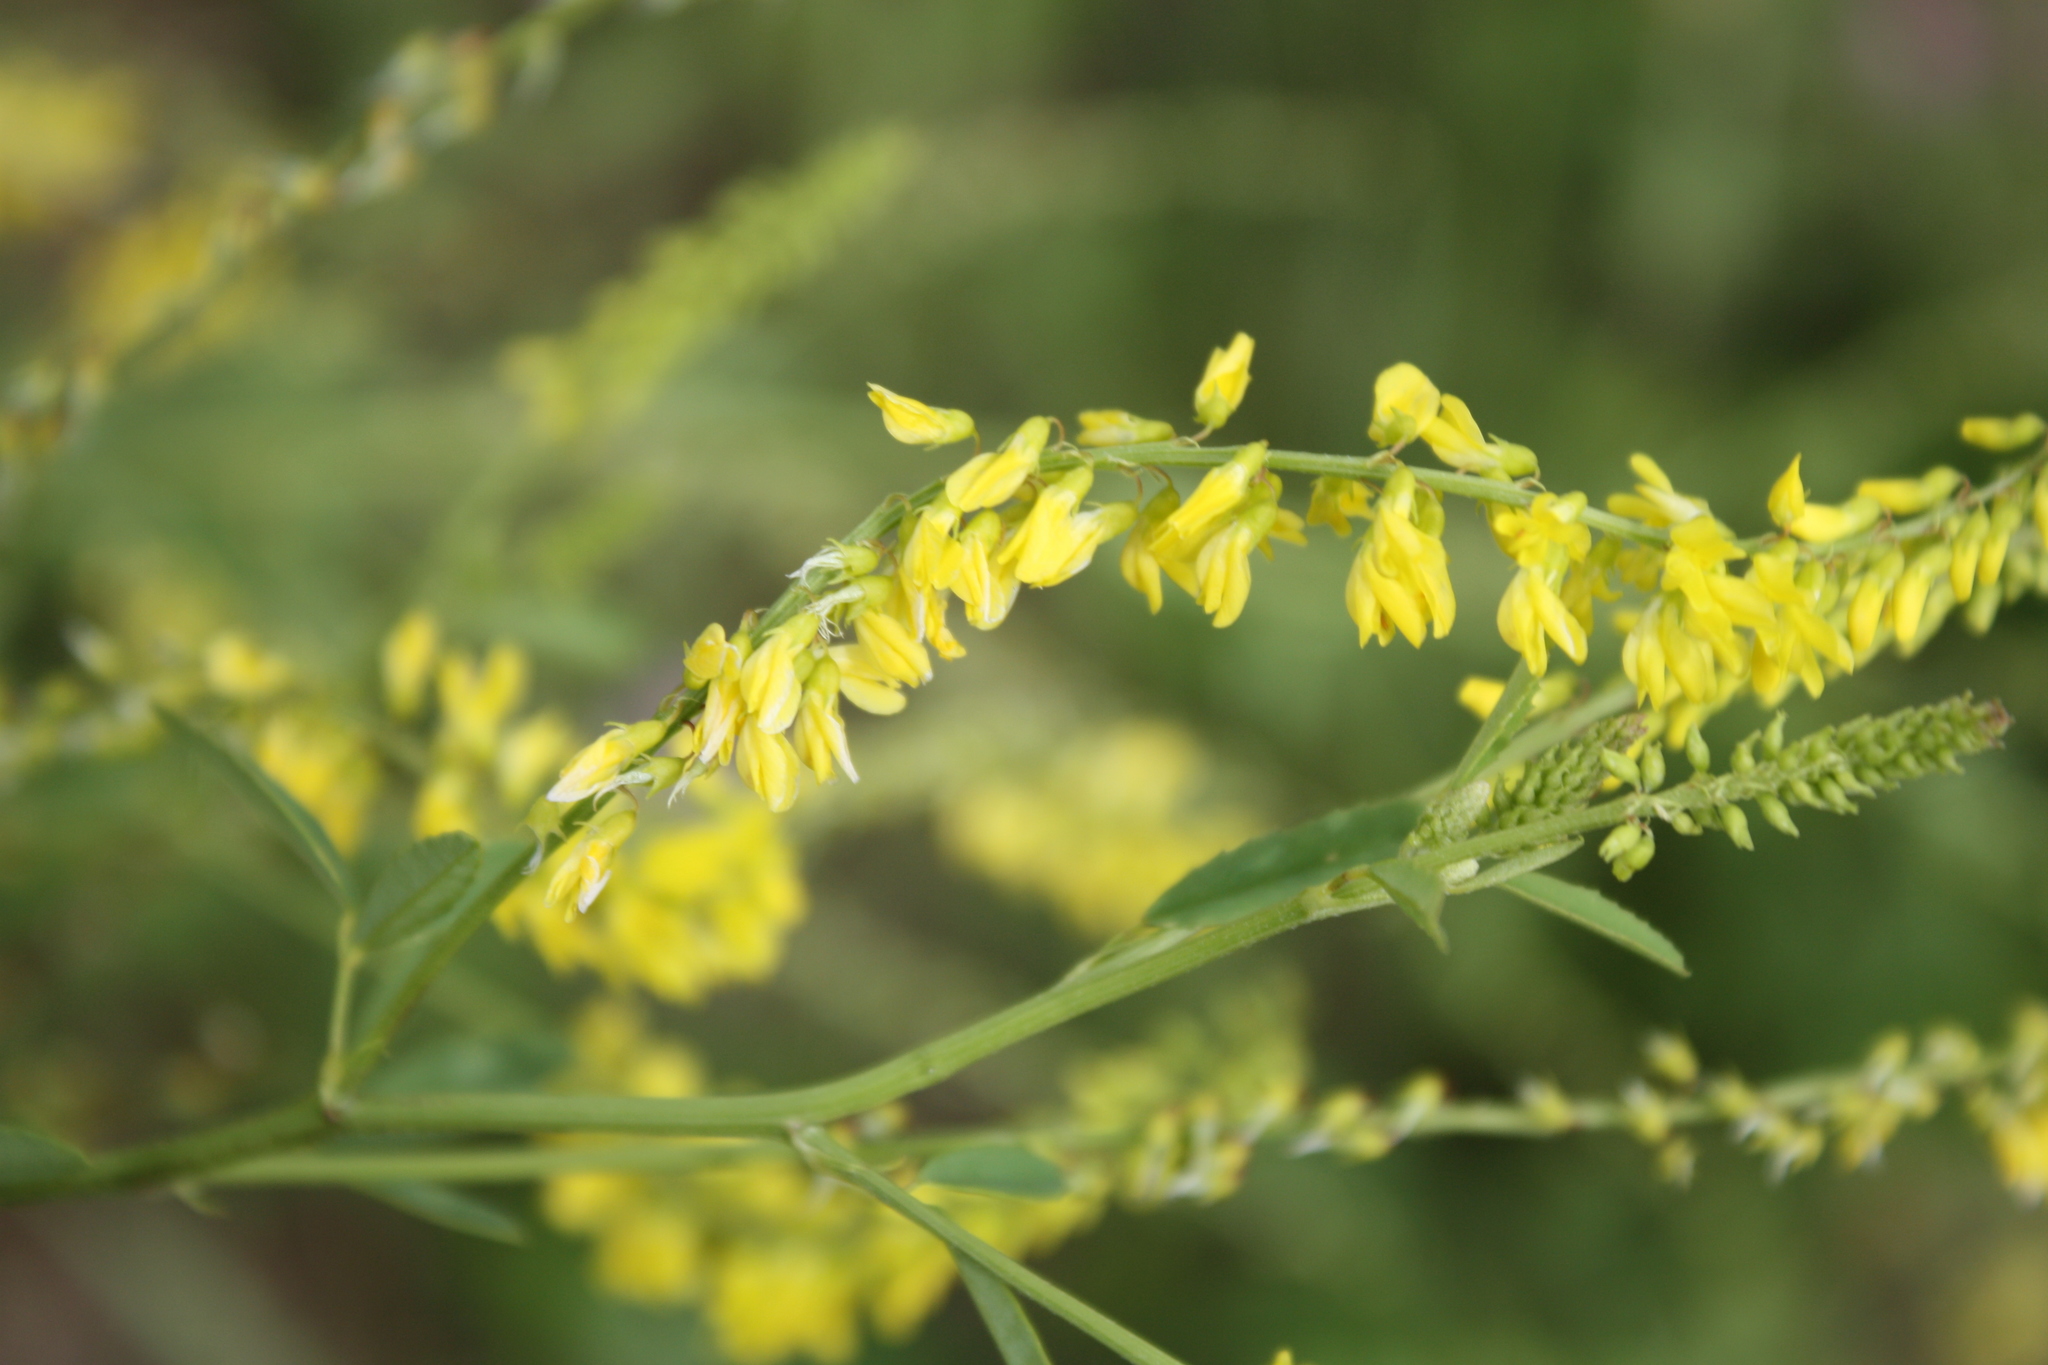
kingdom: Plantae
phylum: Tracheophyta
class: Magnoliopsida
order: Fabales
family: Fabaceae
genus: Melilotus
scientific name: Melilotus officinalis
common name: Sweetclover
